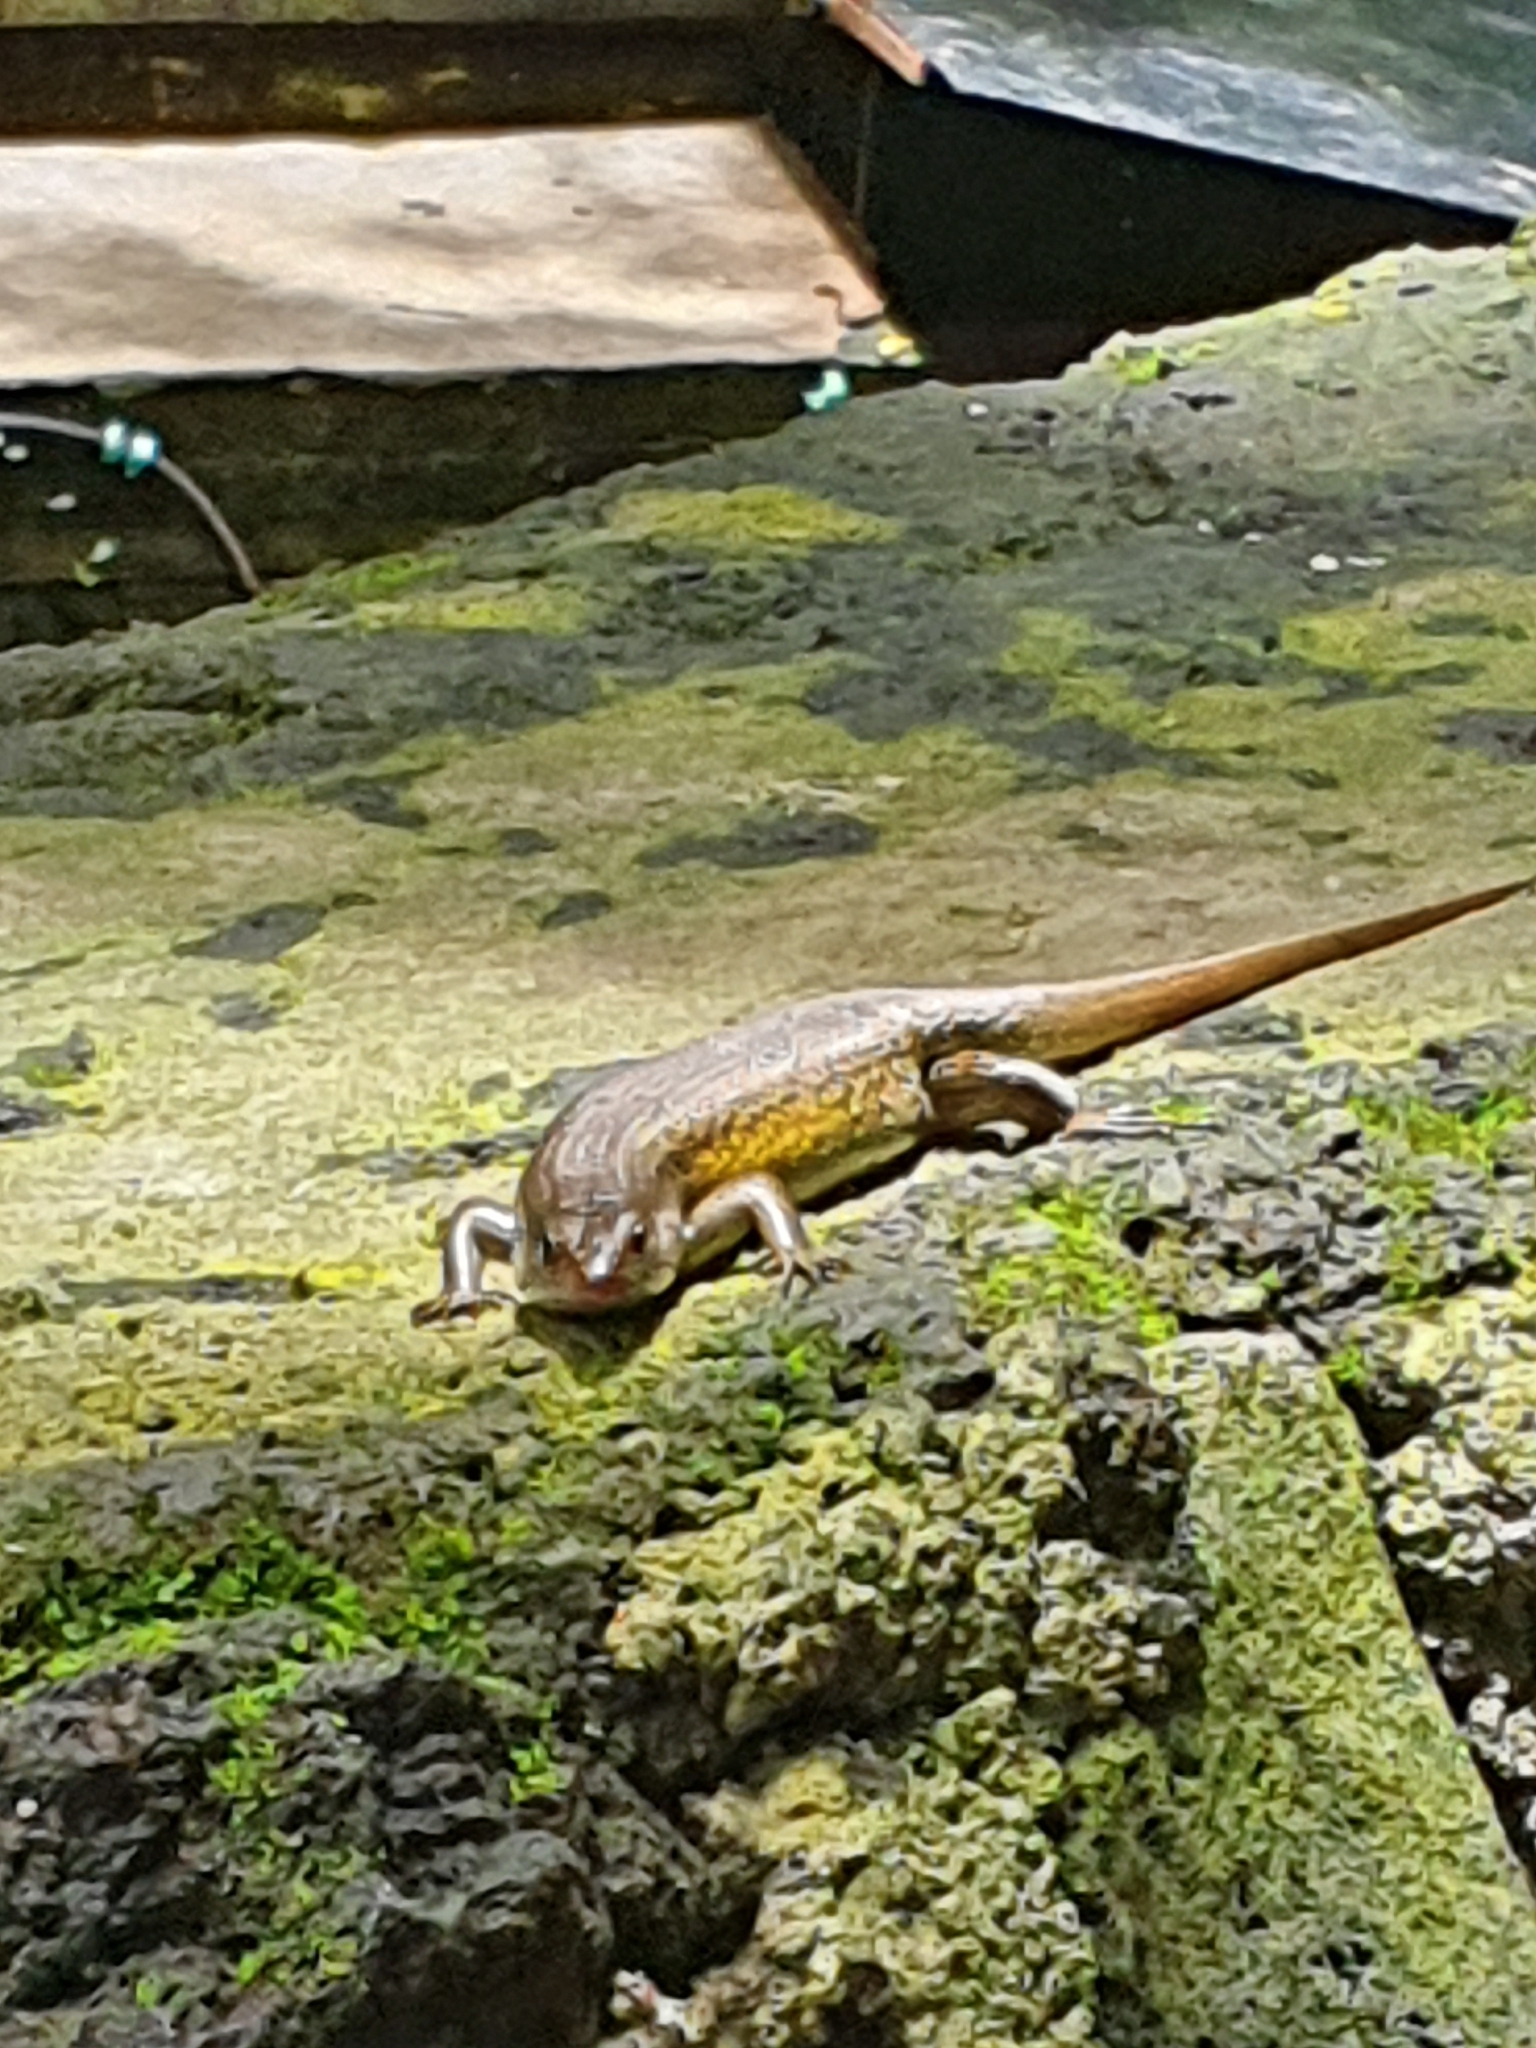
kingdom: Animalia
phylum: Chordata
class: Squamata
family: Scincidae
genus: Eutropis
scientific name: Eutropis multifasciata
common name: Common mabuya
